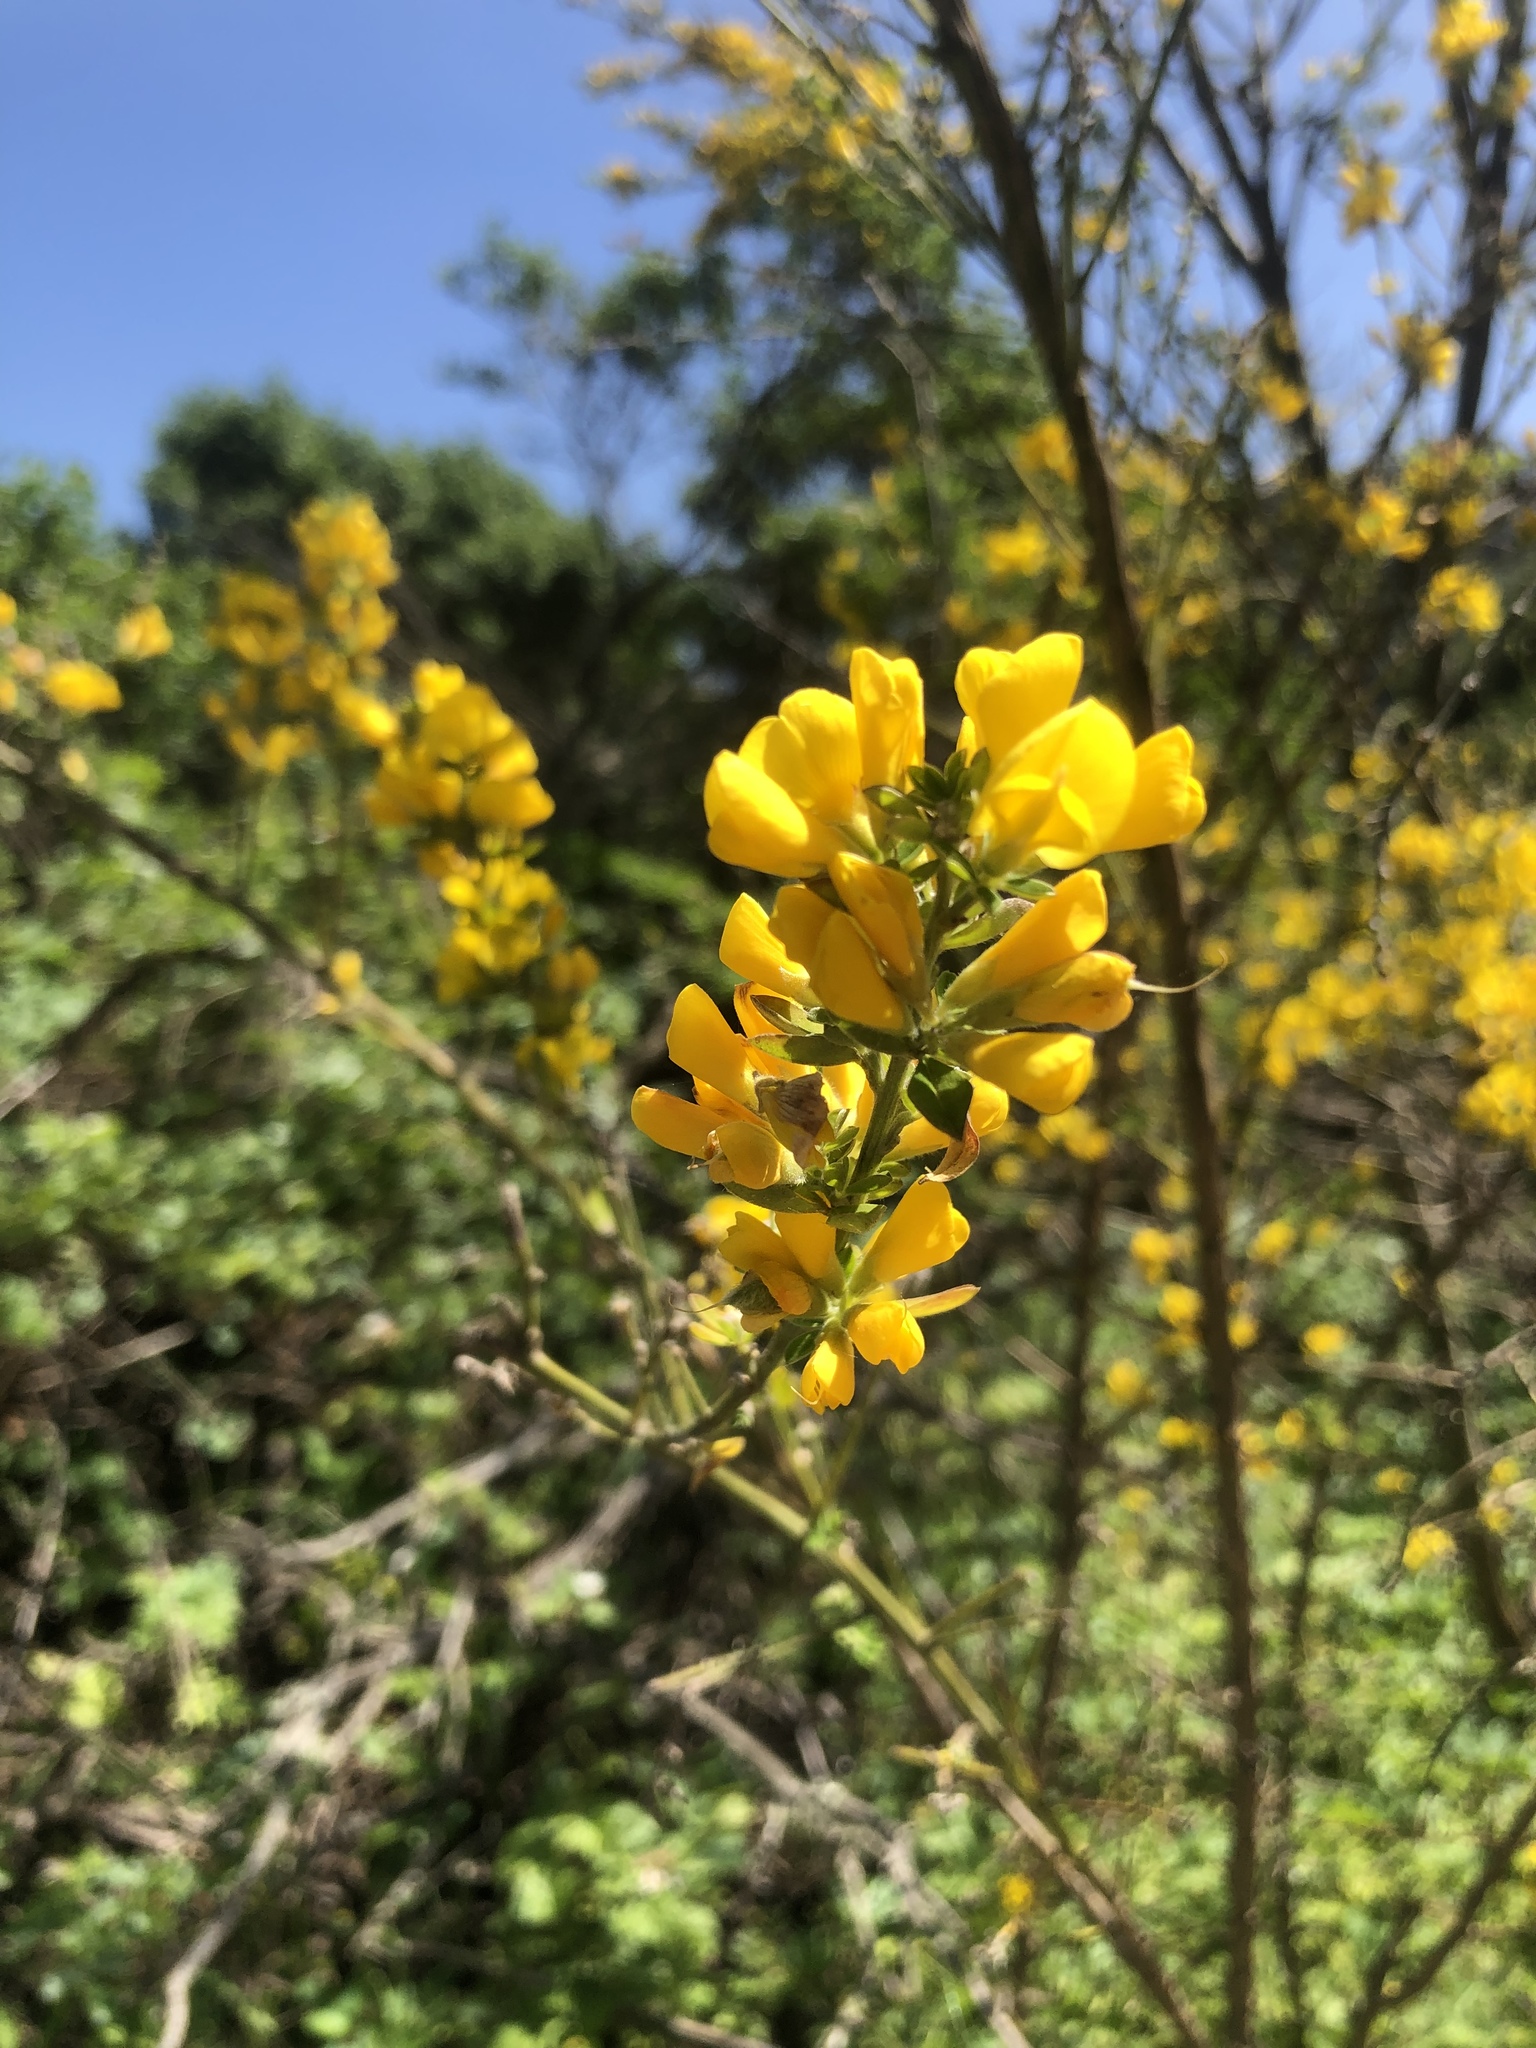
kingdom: Plantae
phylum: Tracheophyta
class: Magnoliopsida
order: Fabales
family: Fabaceae
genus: Genista
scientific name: Genista monspessulana
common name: Montpellier broom
